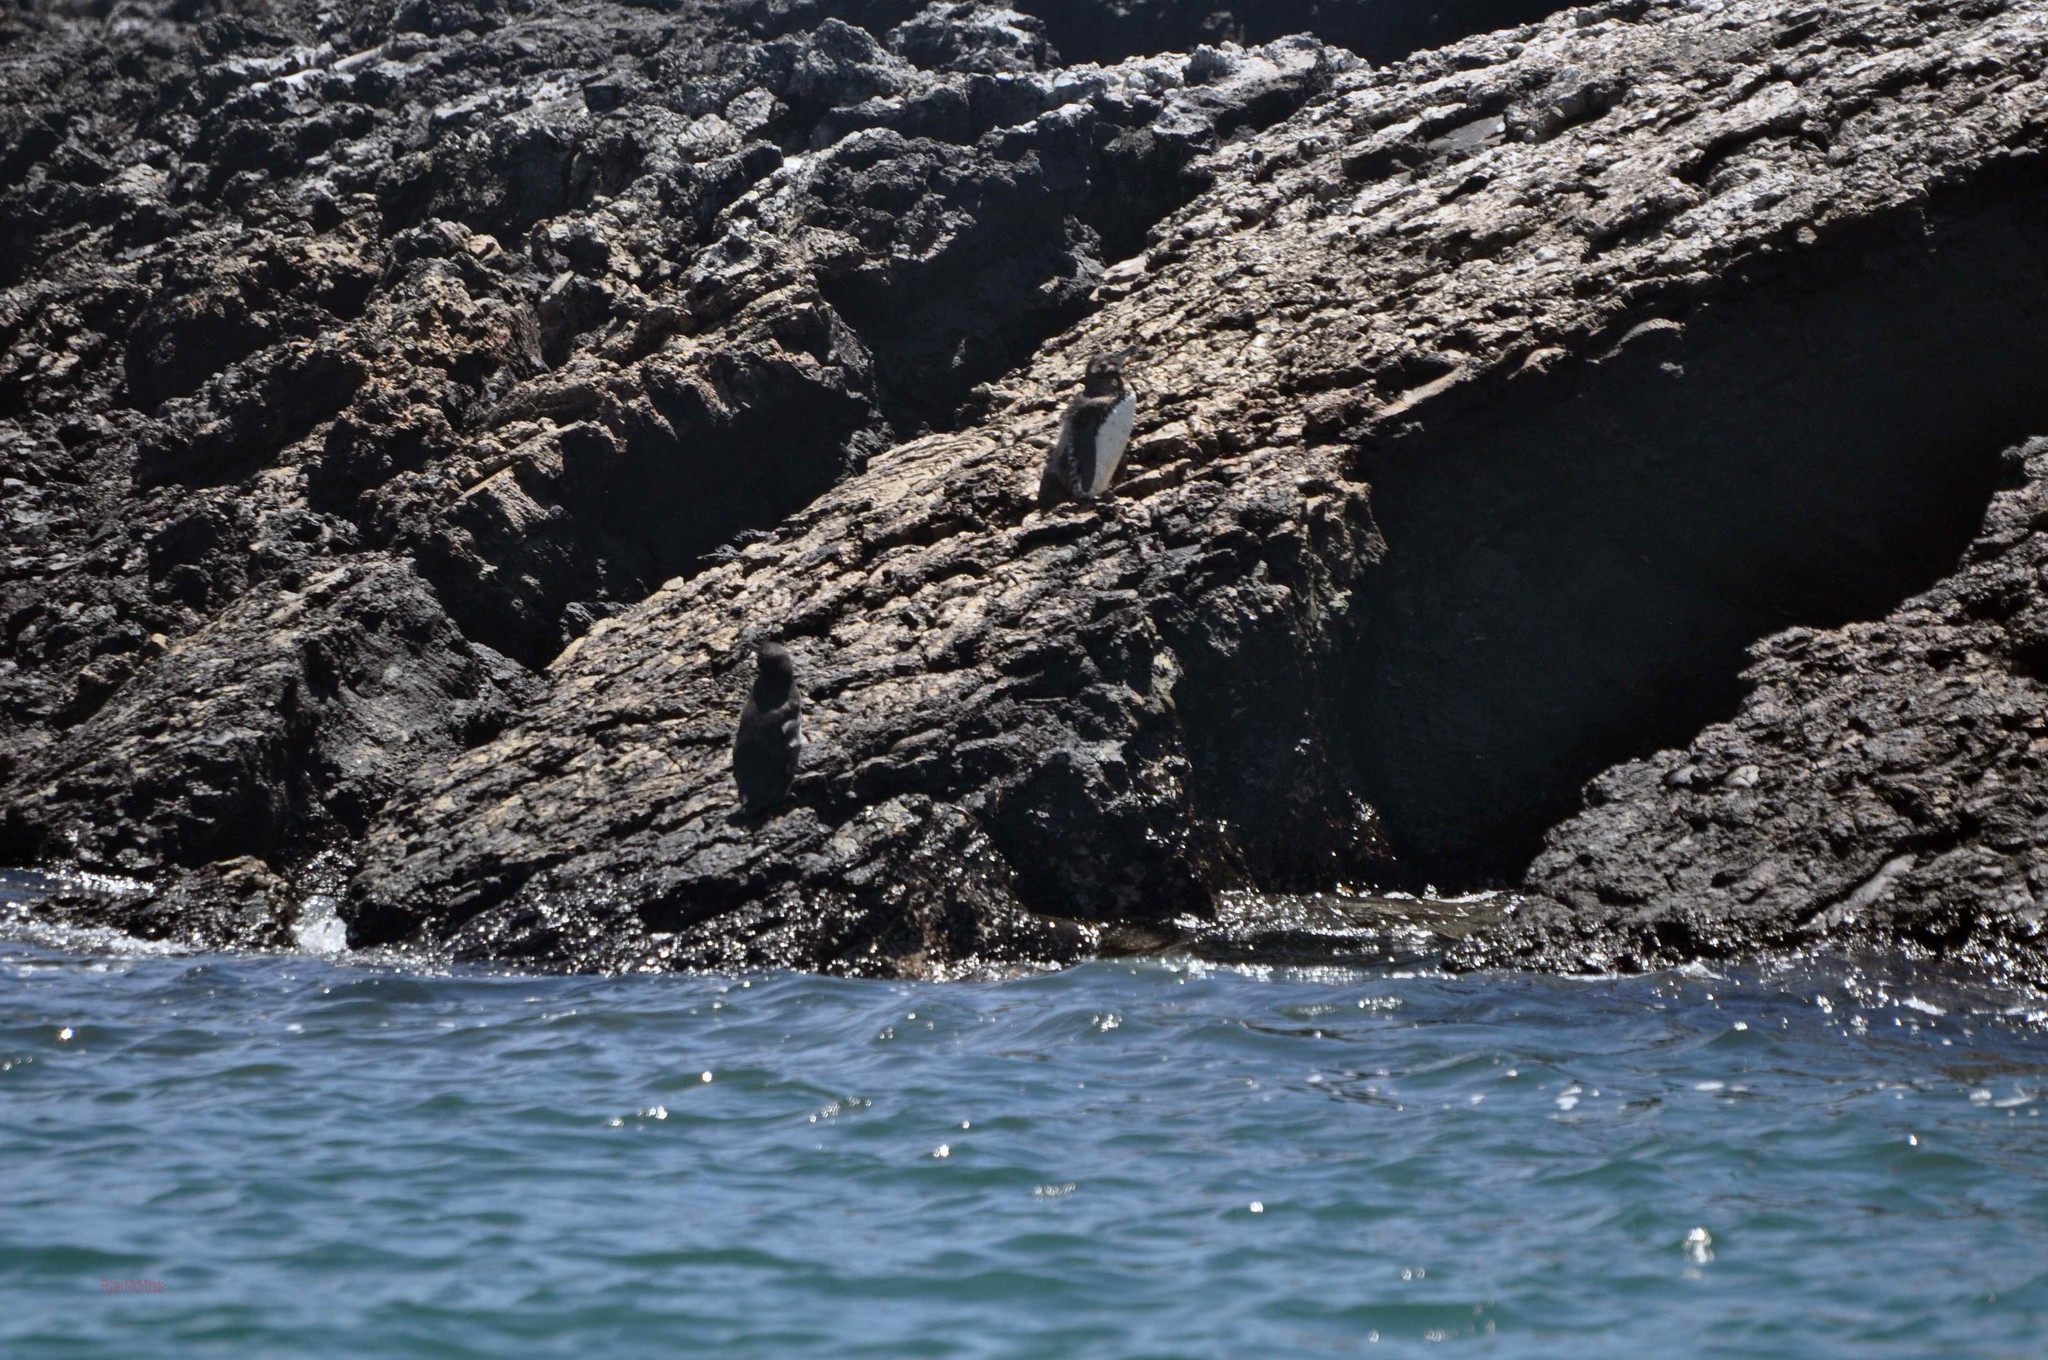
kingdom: Animalia
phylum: Chordata
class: Aves
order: Sphenisciformes
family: Spheniscidae
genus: Spheniscus
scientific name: Spheniscus mendiculus
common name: Galapagos penguin
